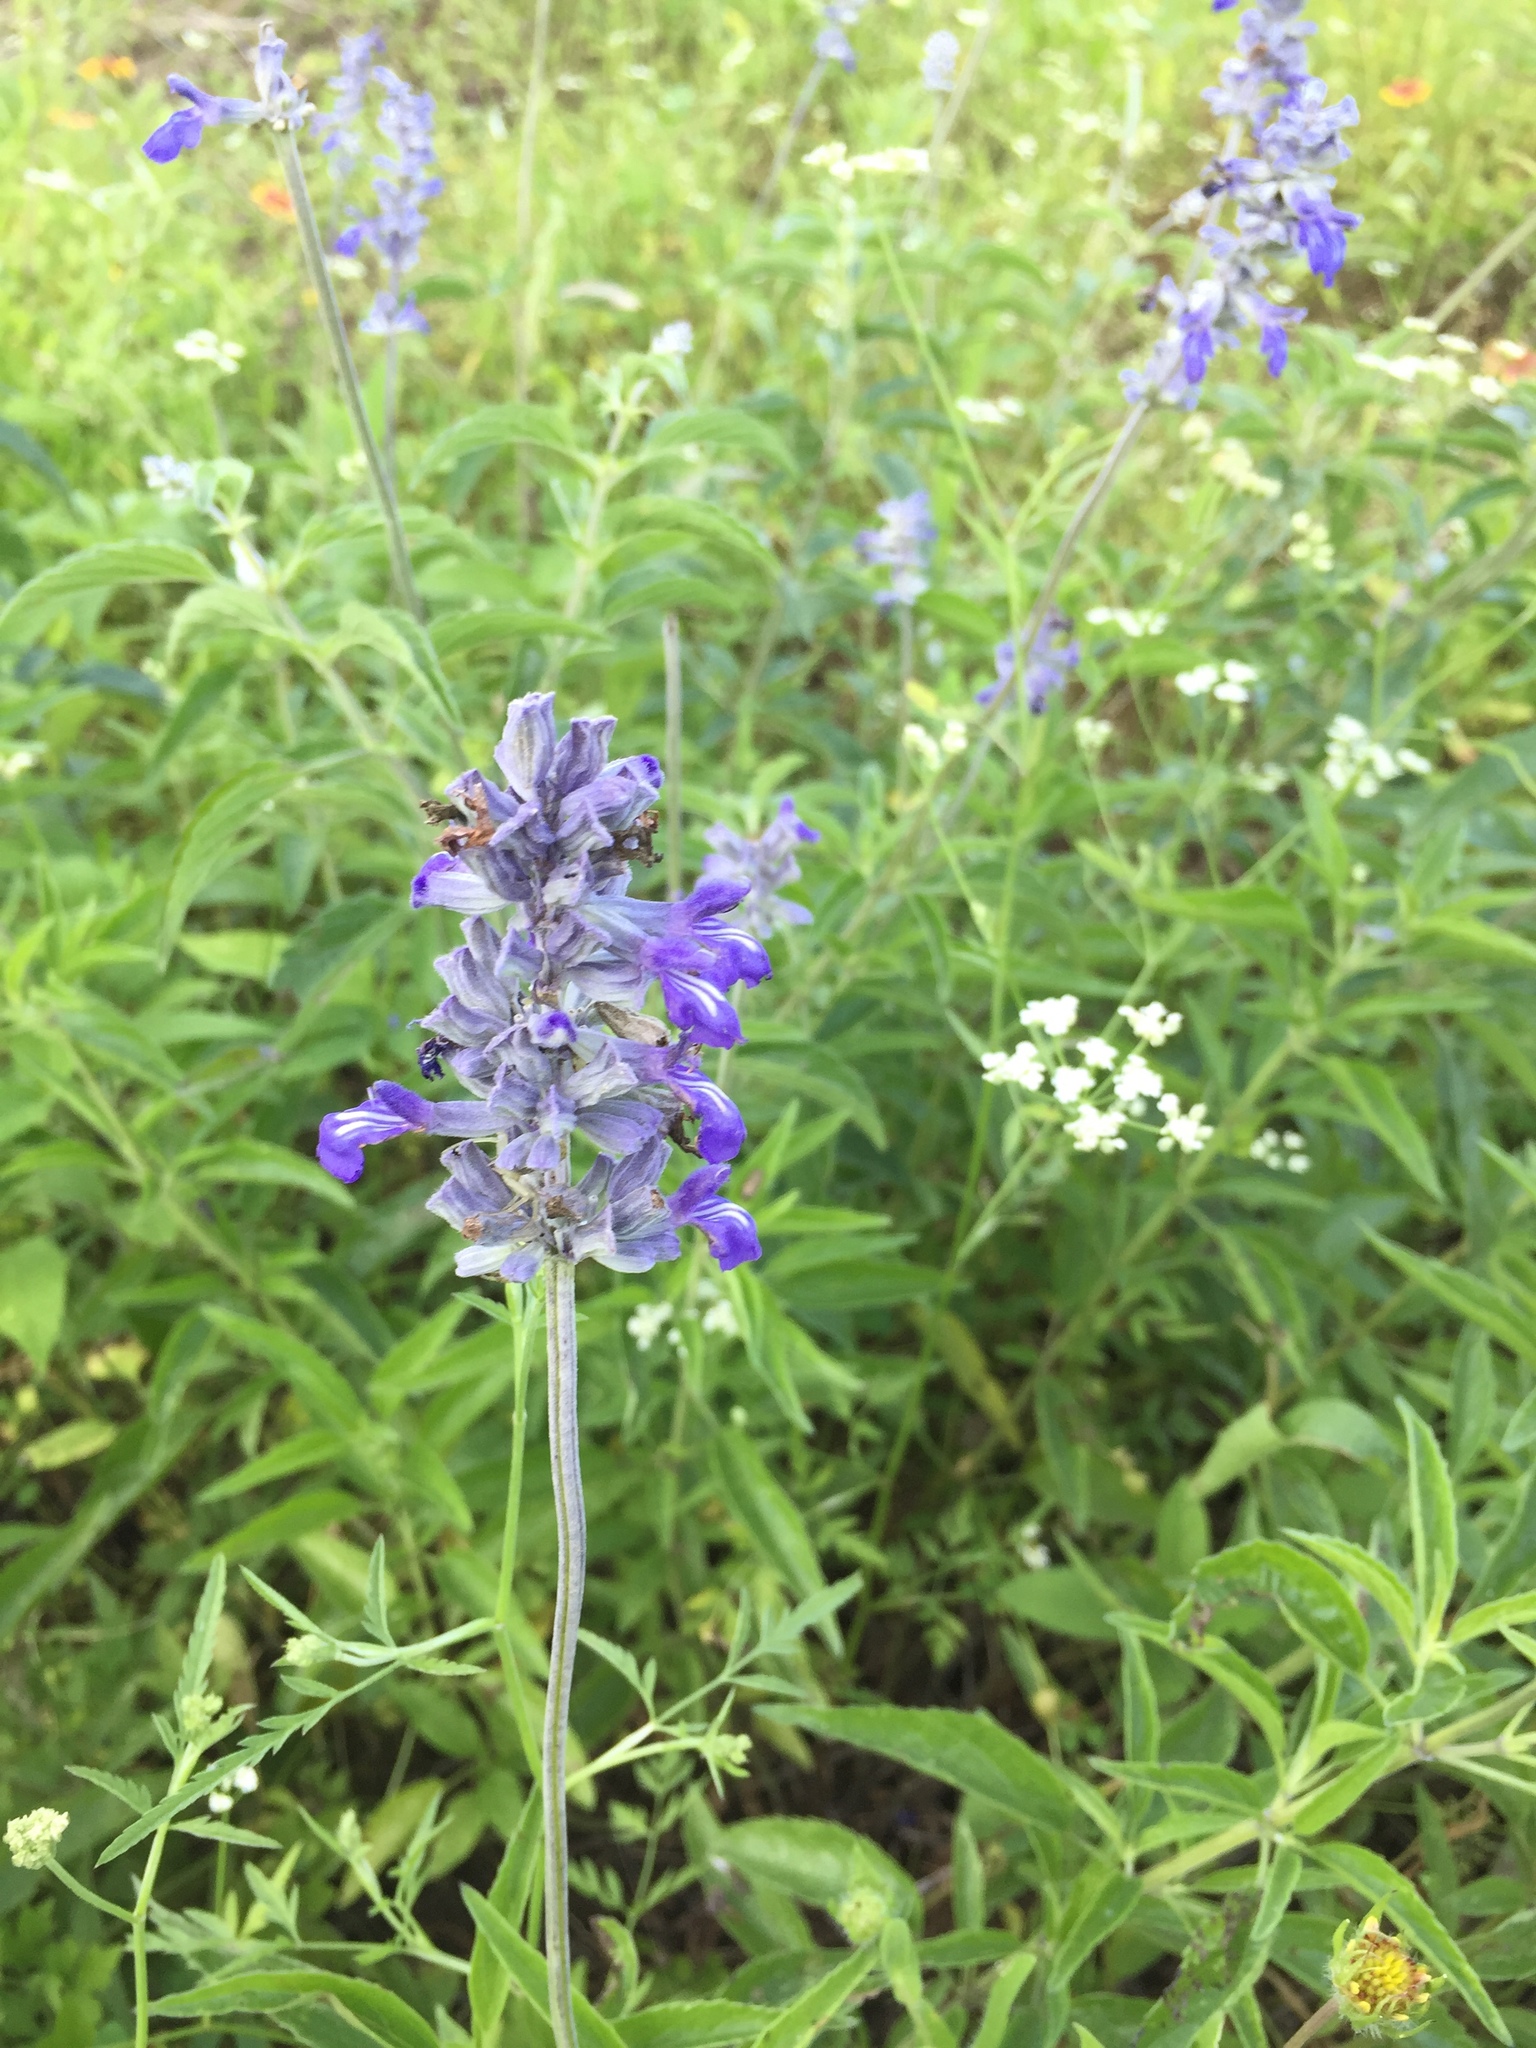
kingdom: Plantae
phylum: Tracheophyta
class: Magnoliopsida
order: Lamiales
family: Lamiaceae
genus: Salvia
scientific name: Salvia farinacea
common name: Mealy sage
